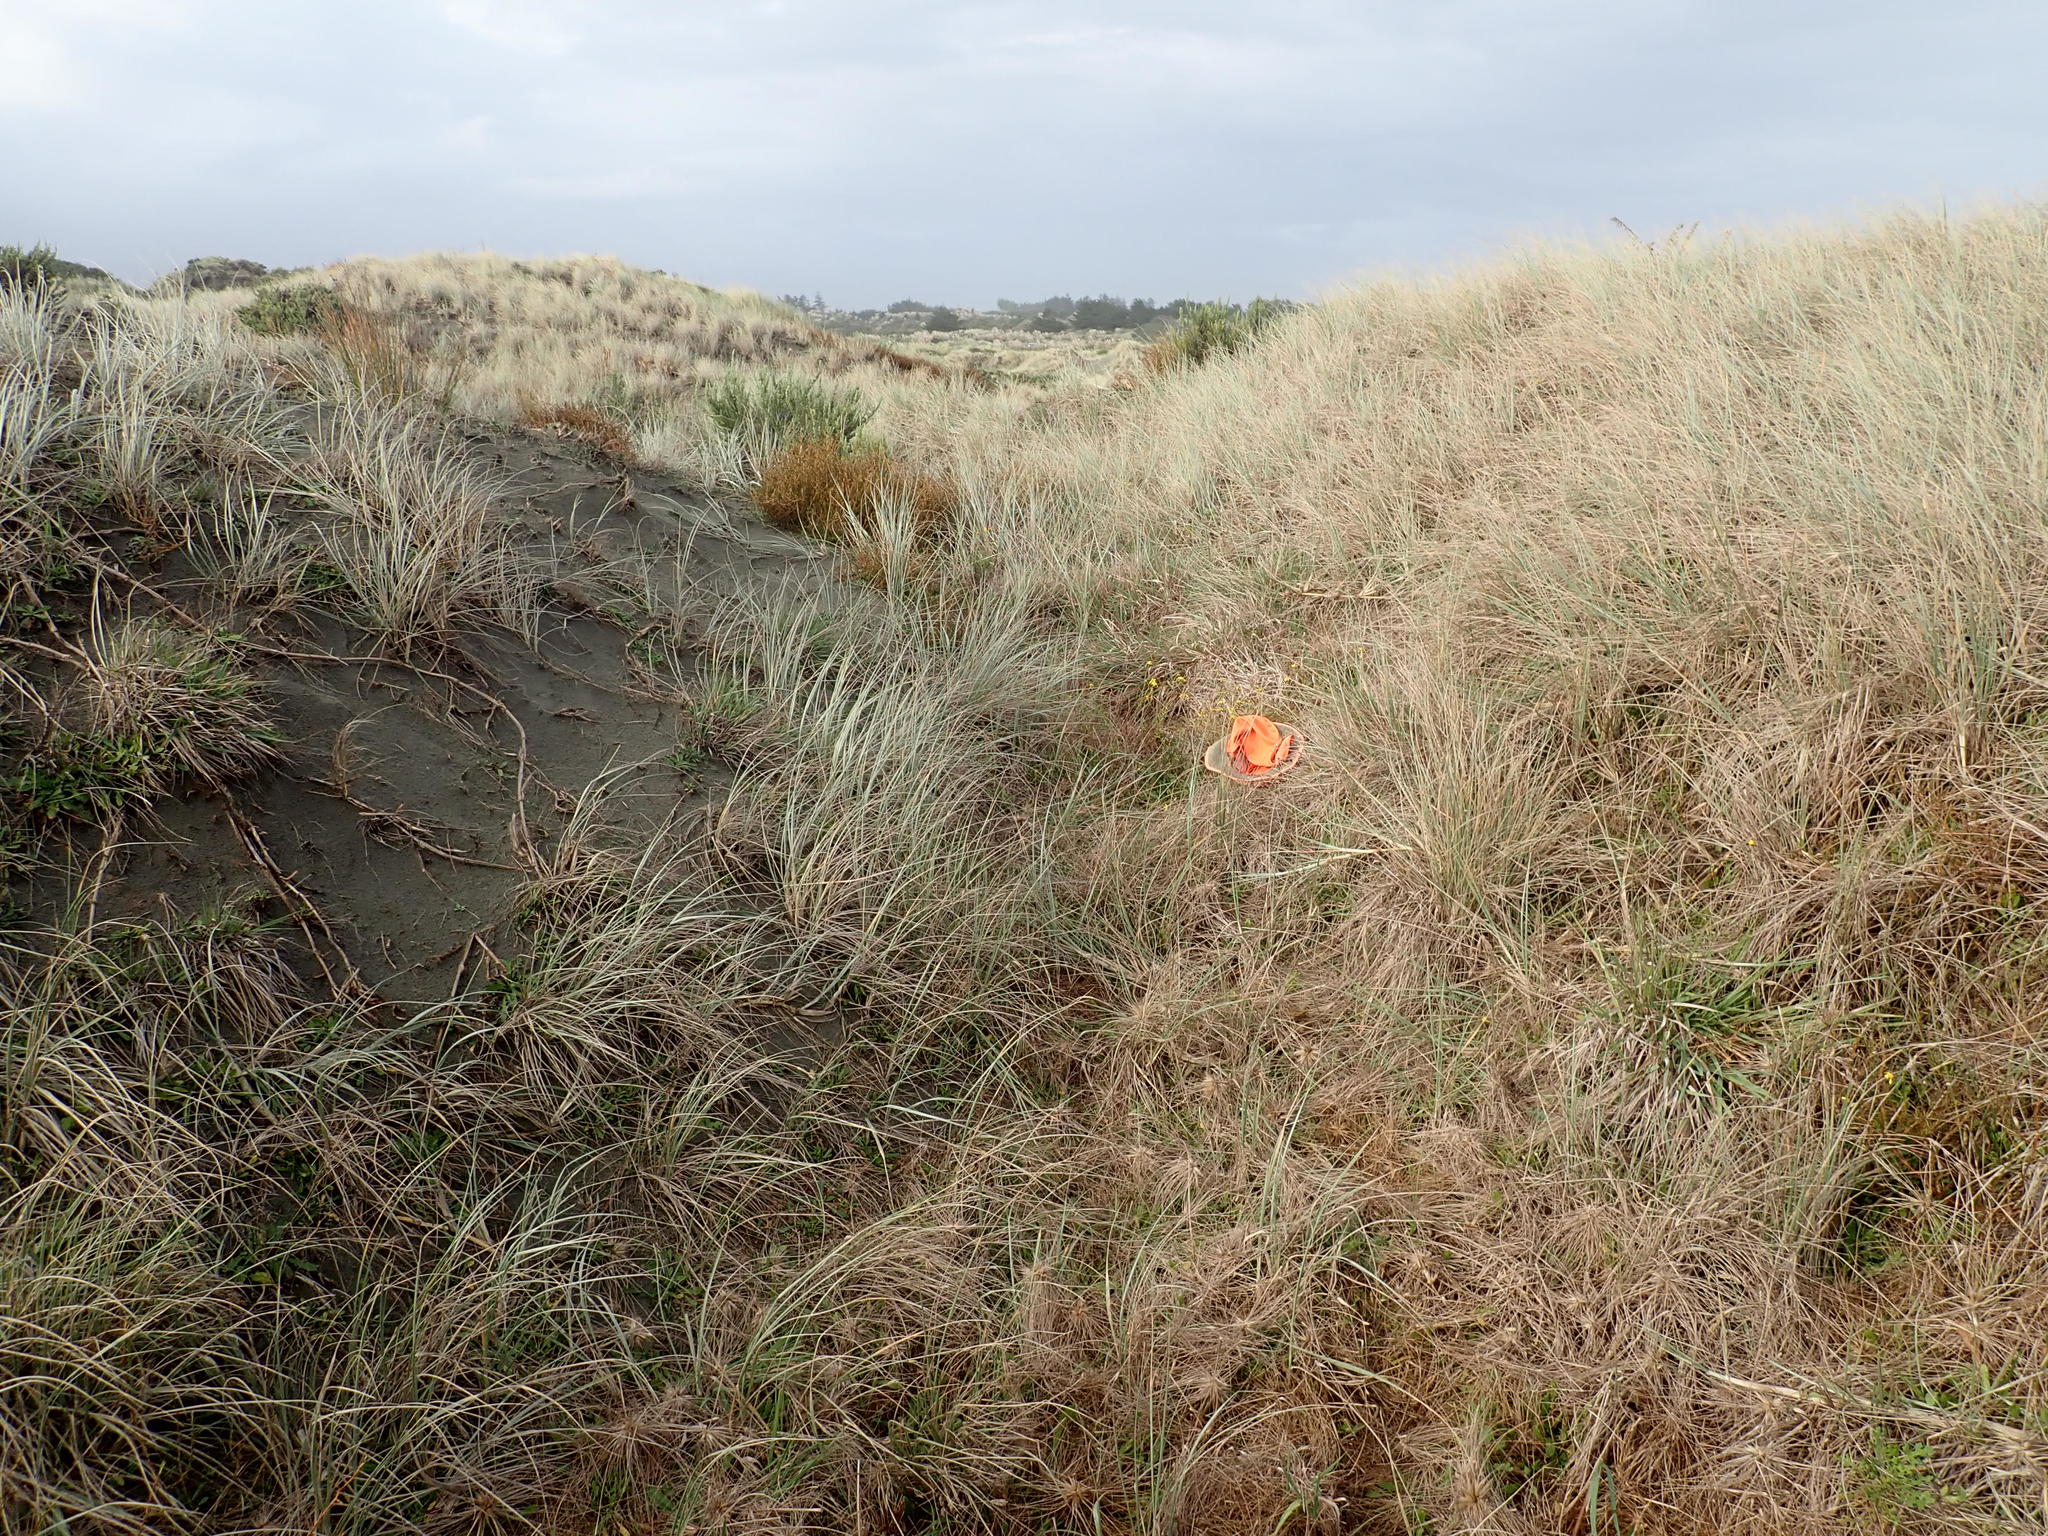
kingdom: Plantae
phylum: Tracheophyta
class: Magnoliopsida
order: Asterales
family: Asteraceae
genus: Senecio
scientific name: Senecio skirrhodon
